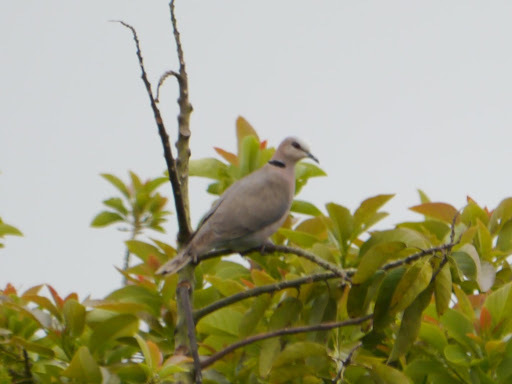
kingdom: Animalia
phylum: Chordata
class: Aves
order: Columbiformes
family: Columbidae
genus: Streptopelia
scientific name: Streptopelia semitorquata
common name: Red-eyed dove
